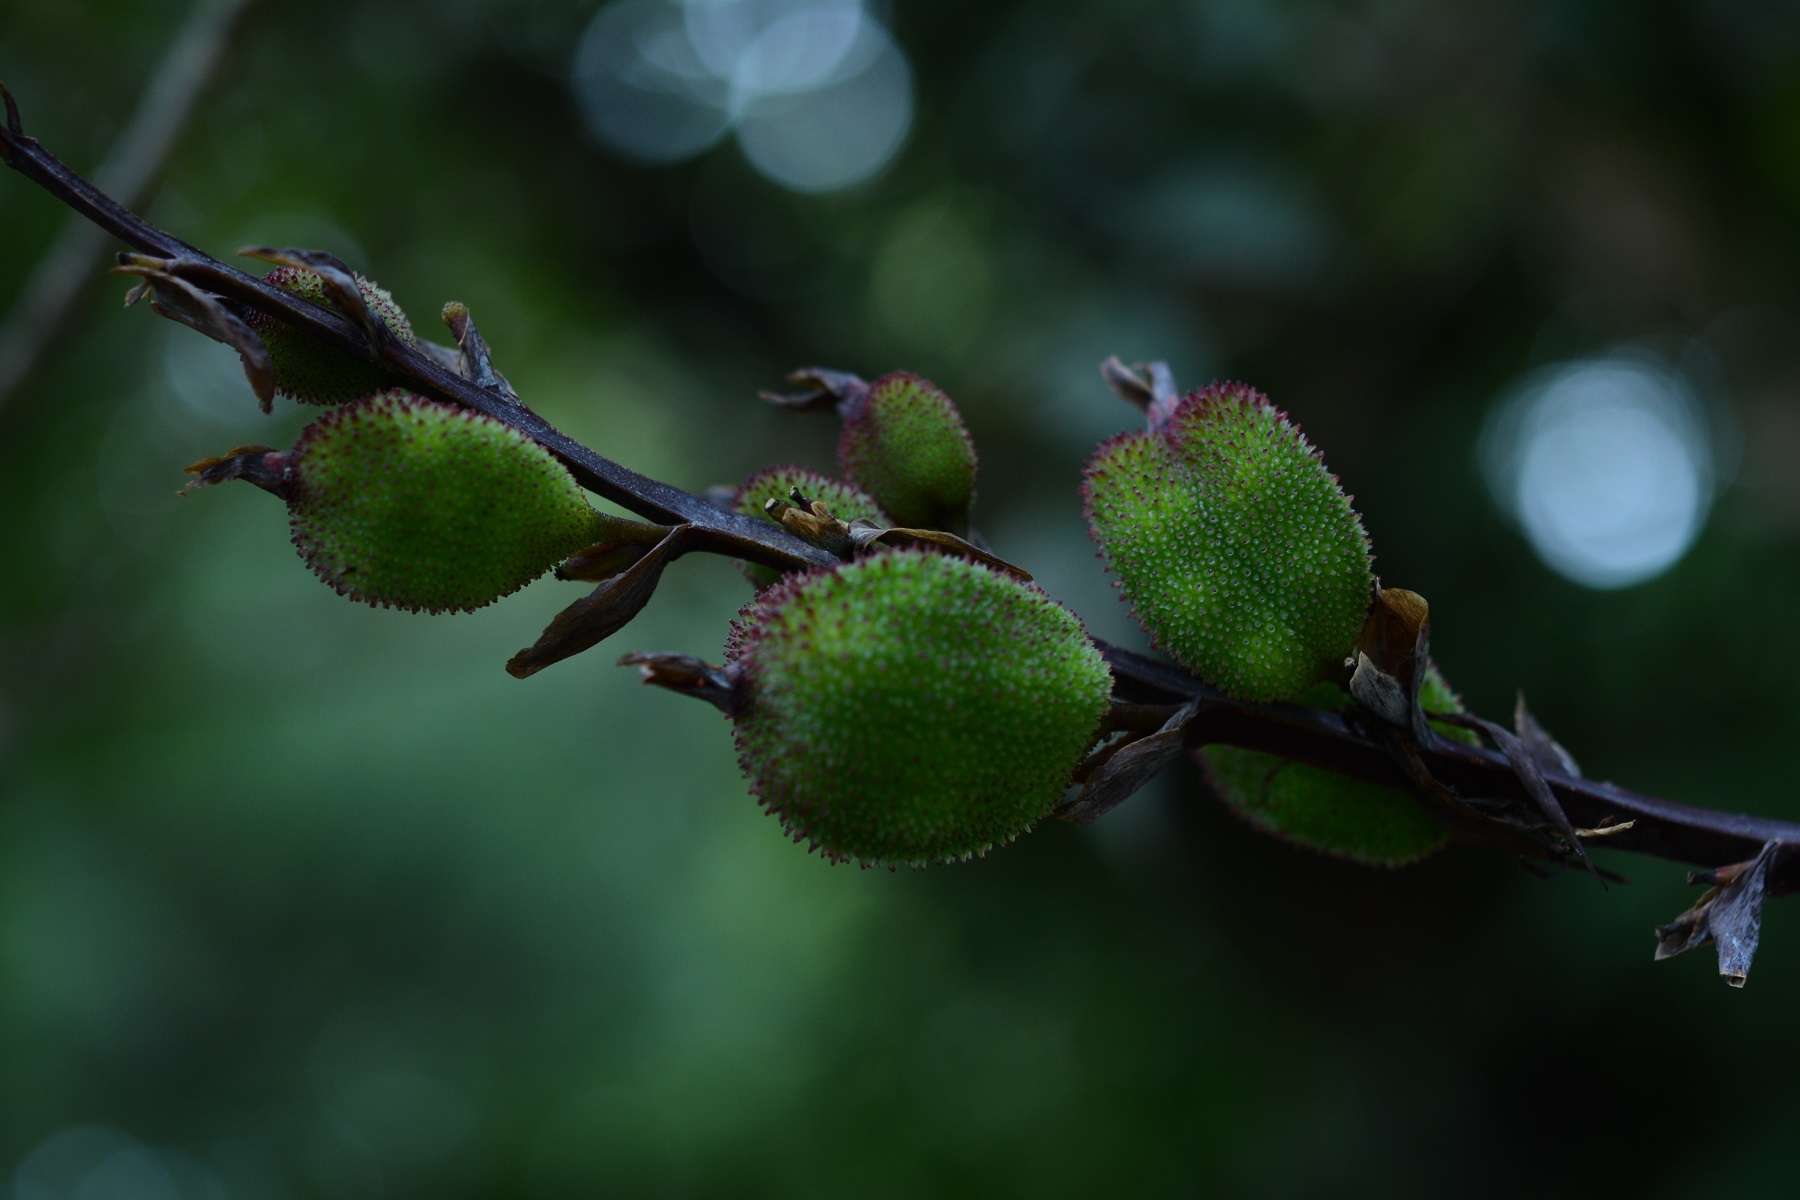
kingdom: Plantae
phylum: Tracheophyta
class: Liliopsida
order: Zingiberales
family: Cannaceae
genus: Canna
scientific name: Canna indica
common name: Indian shot
